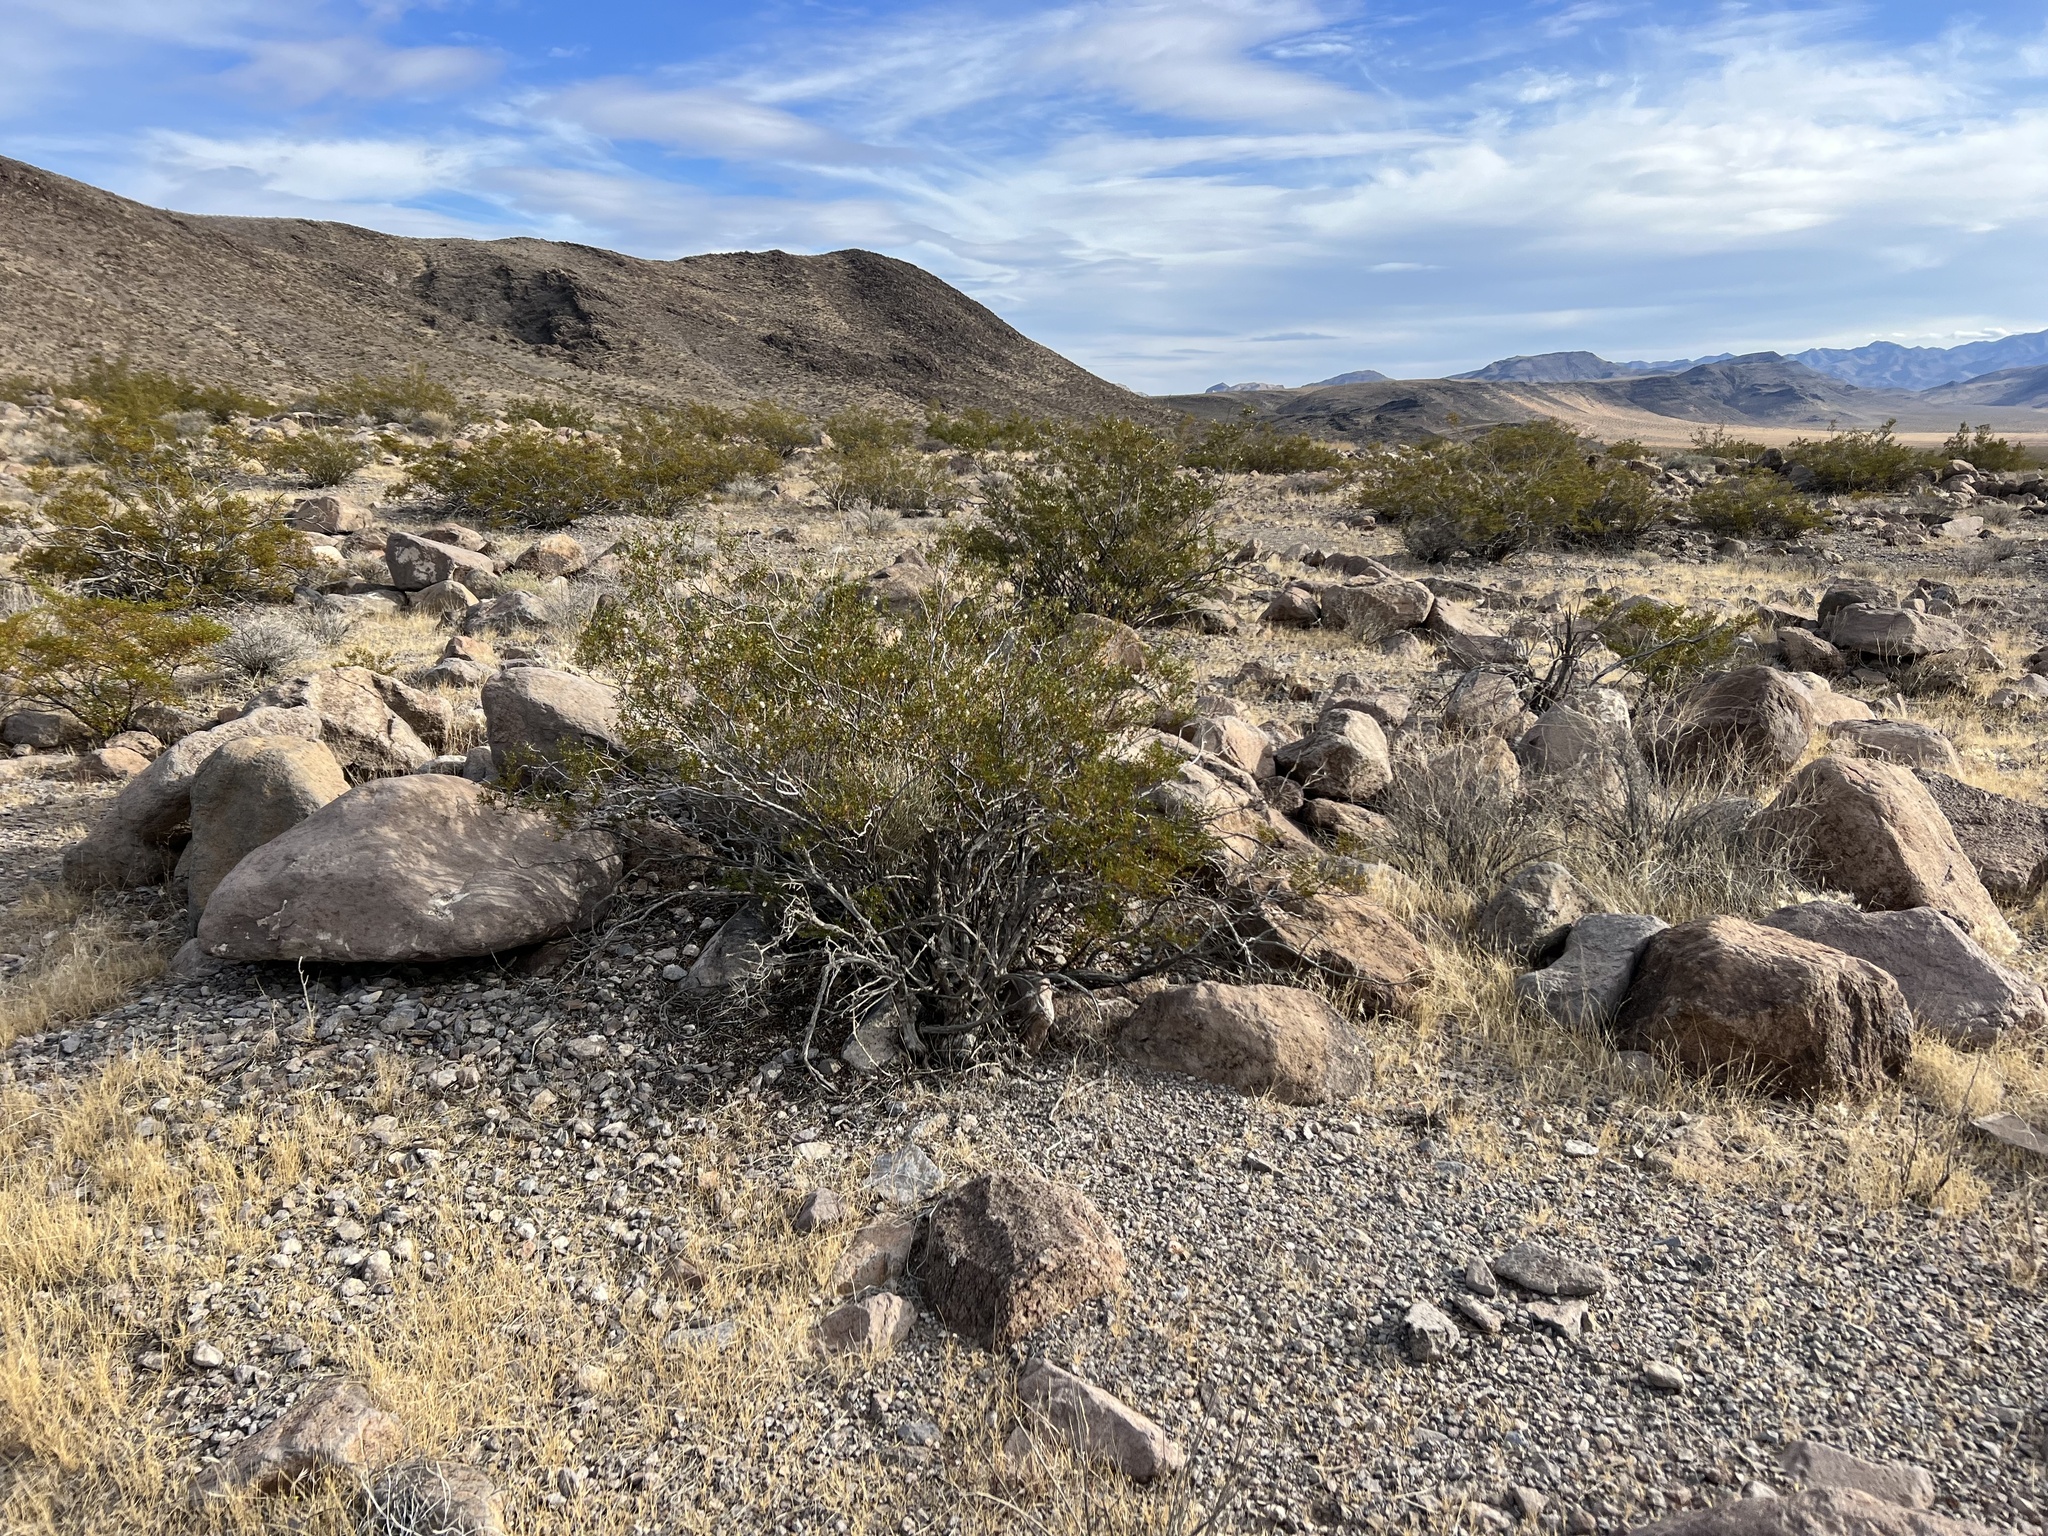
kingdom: Plantae
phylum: Tracheophyta
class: Magnoliopsida
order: Zygophyllales
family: Zygophyllaceae
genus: Larrea
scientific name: Larrea tridentata
